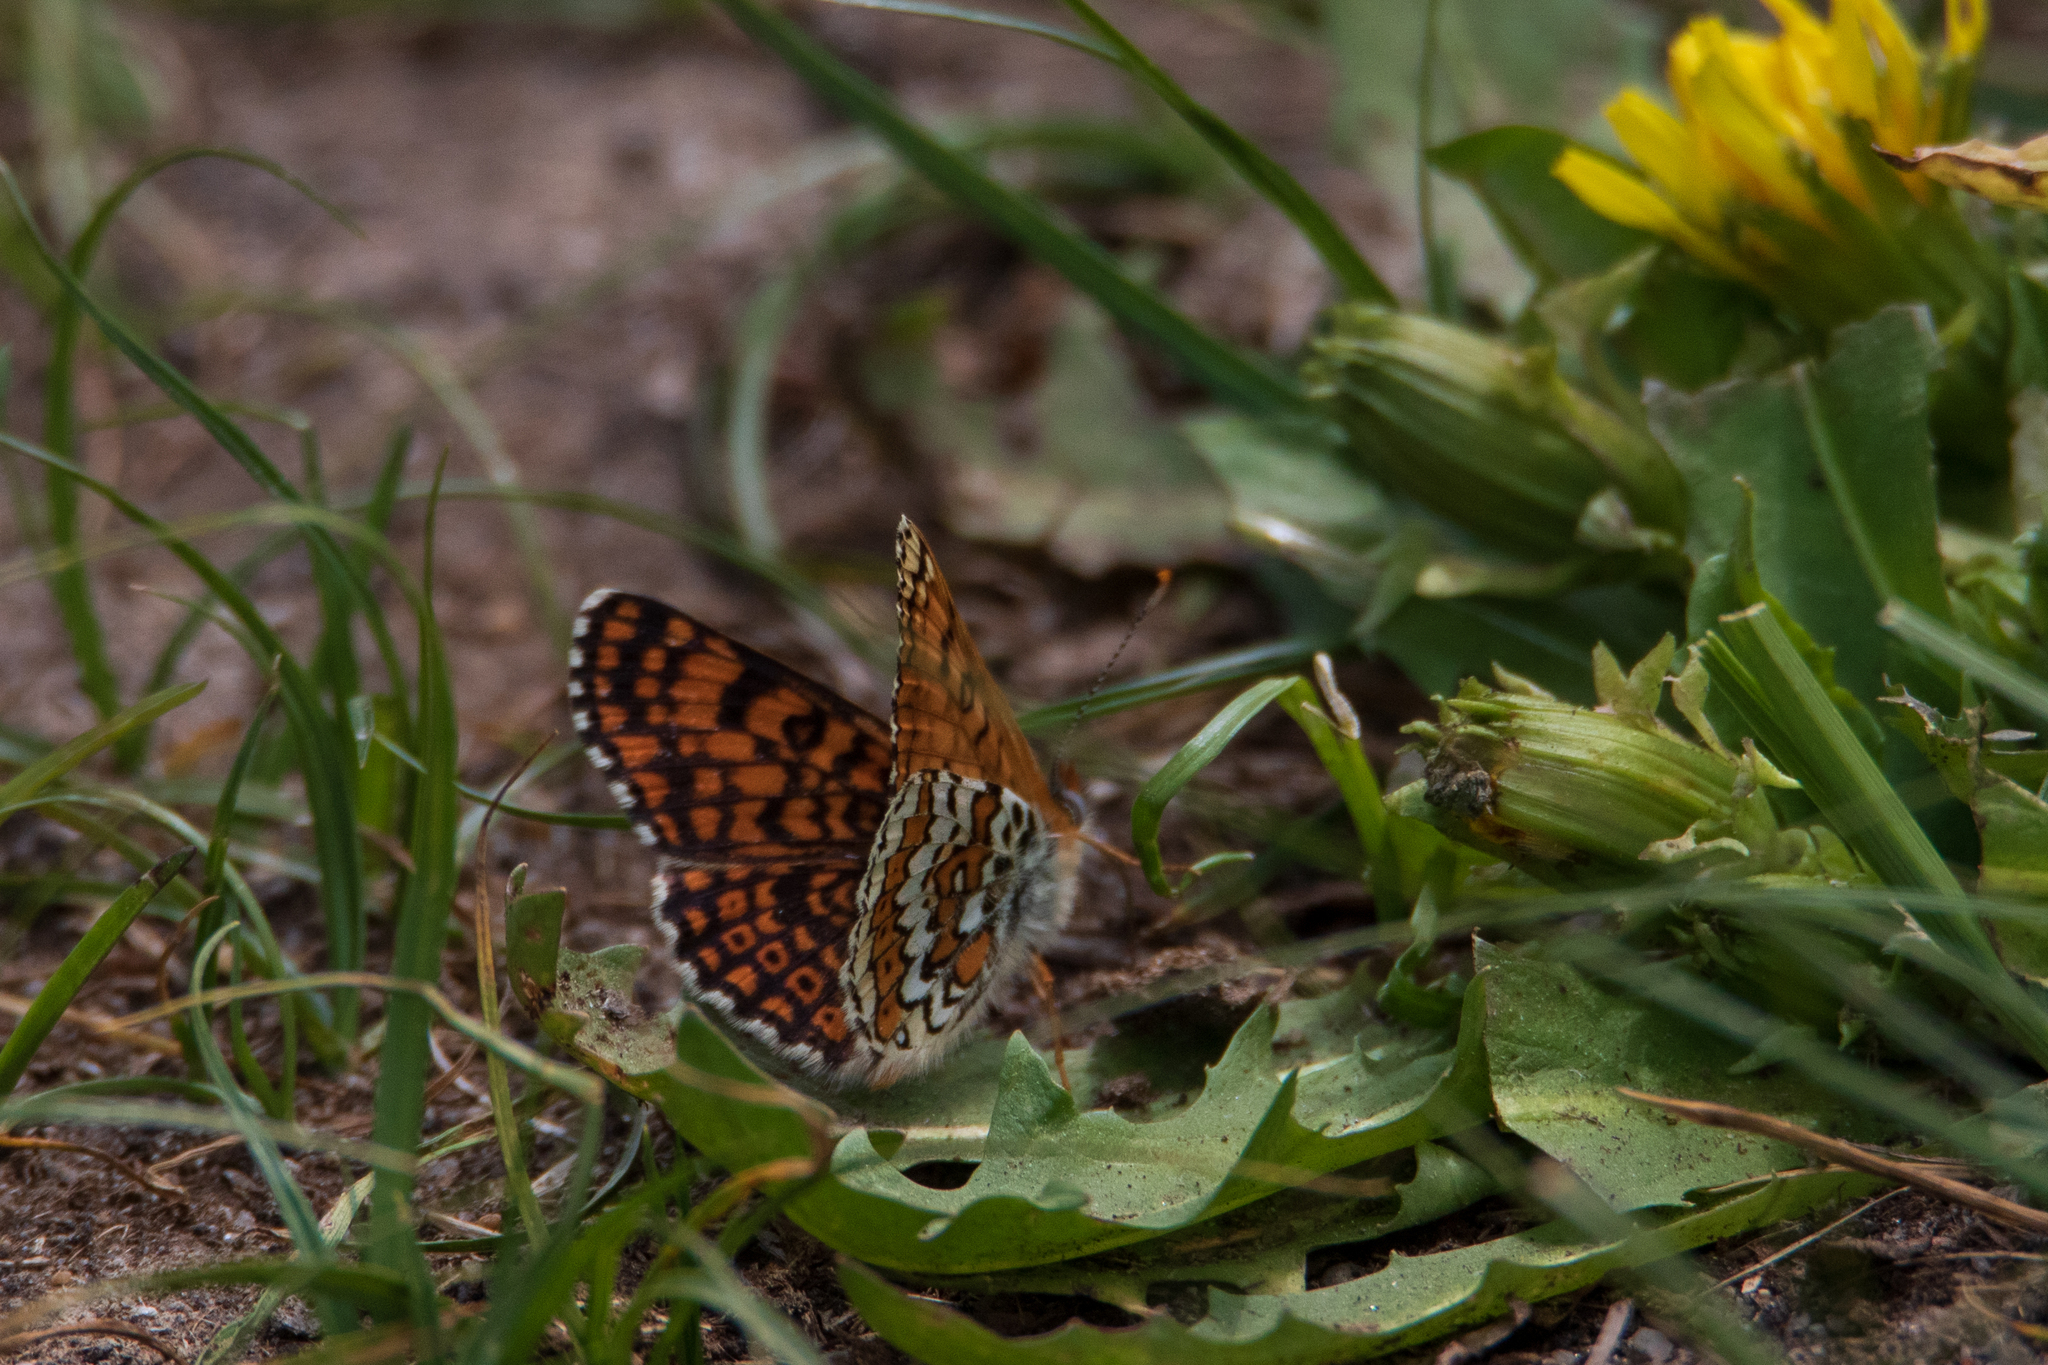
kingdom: Animalia
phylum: Arthropoda
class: Insecta
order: Lepidoptera
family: Nymphalidae
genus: Melitaea
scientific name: Melitaea cinxia
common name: Glanville fritillary
